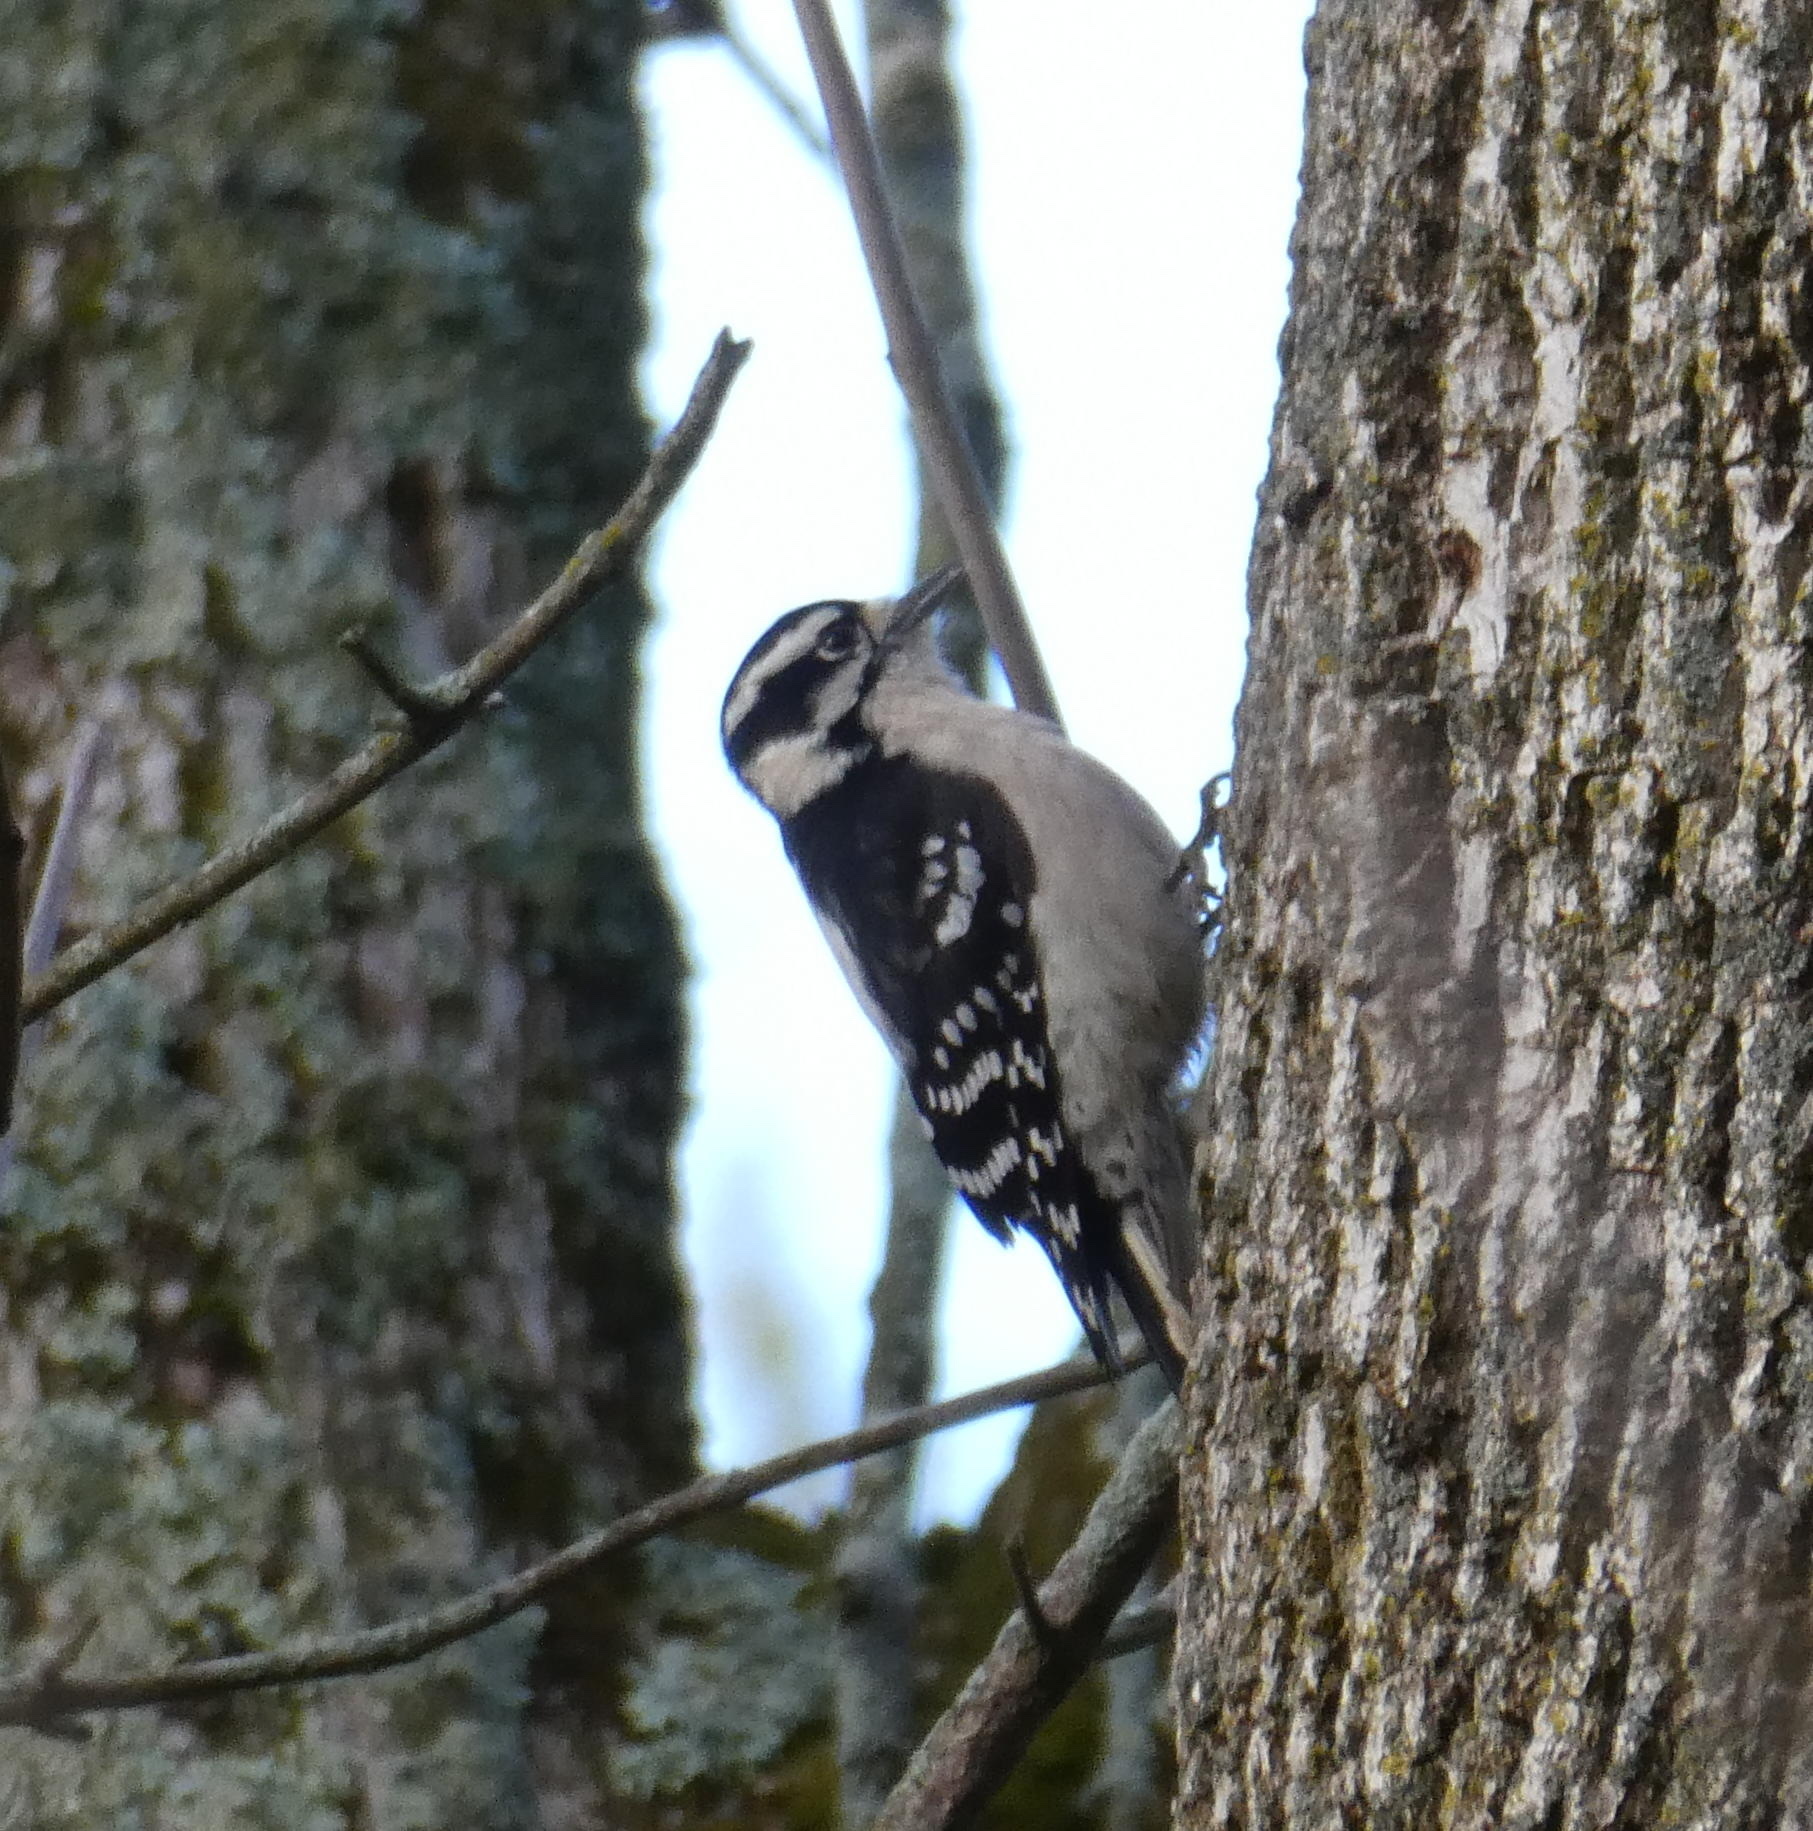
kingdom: Animalia
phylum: Chordata
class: Aves
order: Piciformes
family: Picidae
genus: Dryobates
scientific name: Dryobates pubescens
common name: Downy woodpecker
